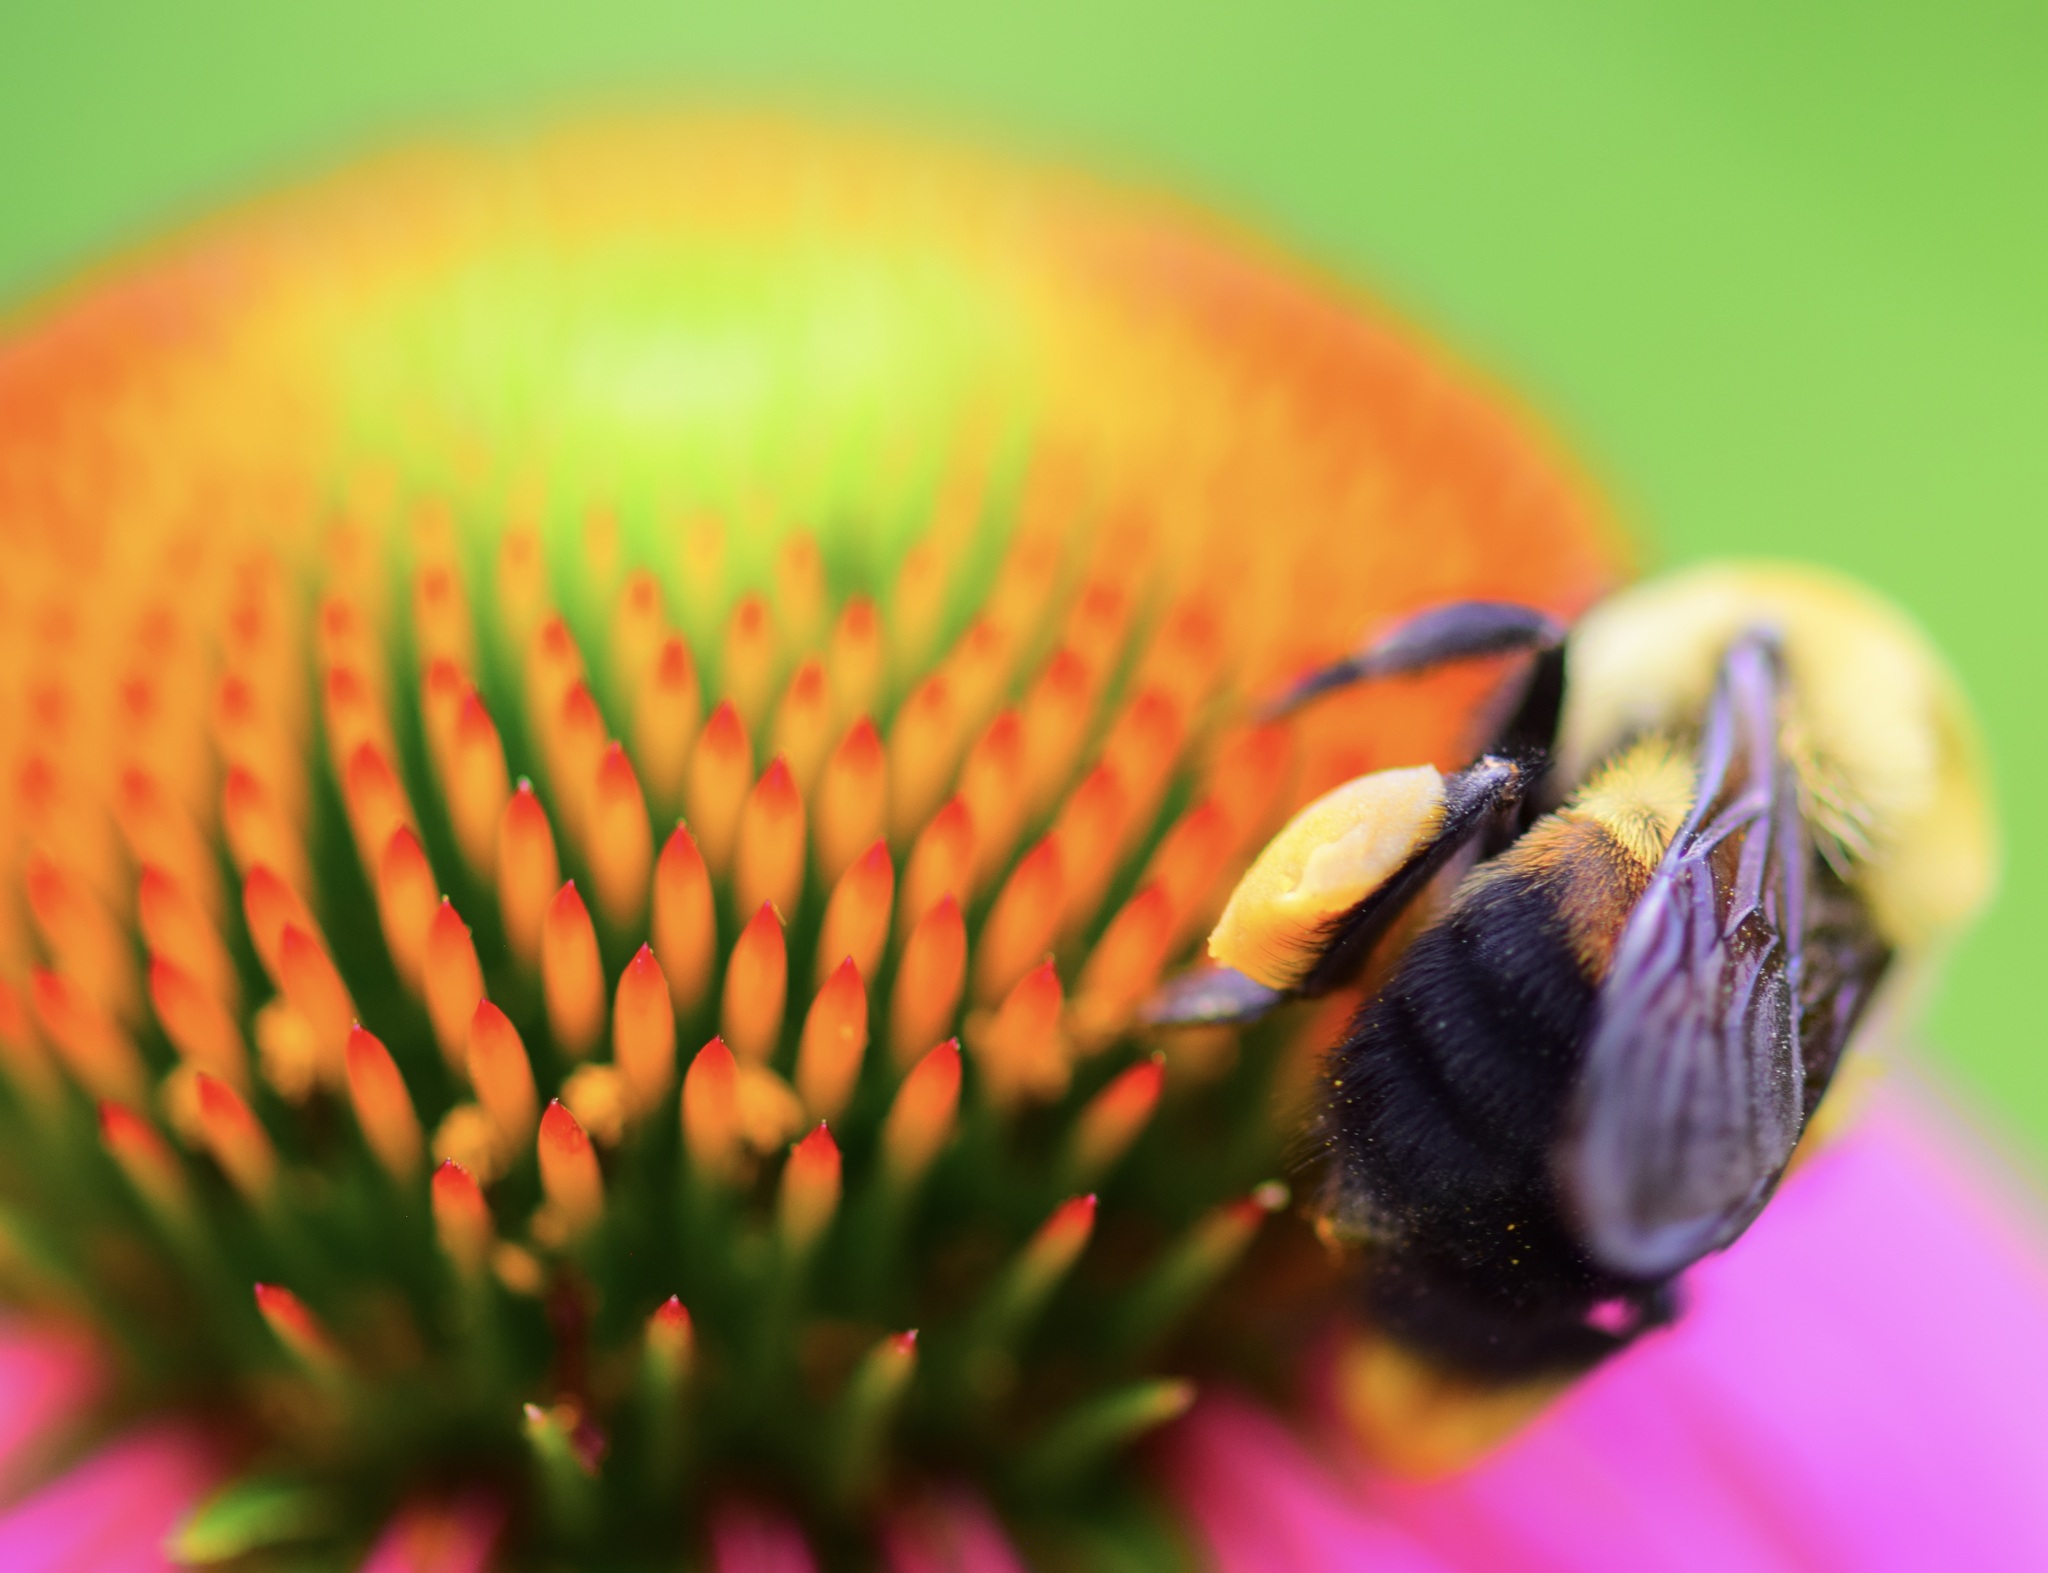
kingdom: Animalia
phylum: Arthropoda
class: Insecta
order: Hymenoptera
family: Apidae
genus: Bombus
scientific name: Bombus griseocollis
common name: Brown-belted bumble bee
